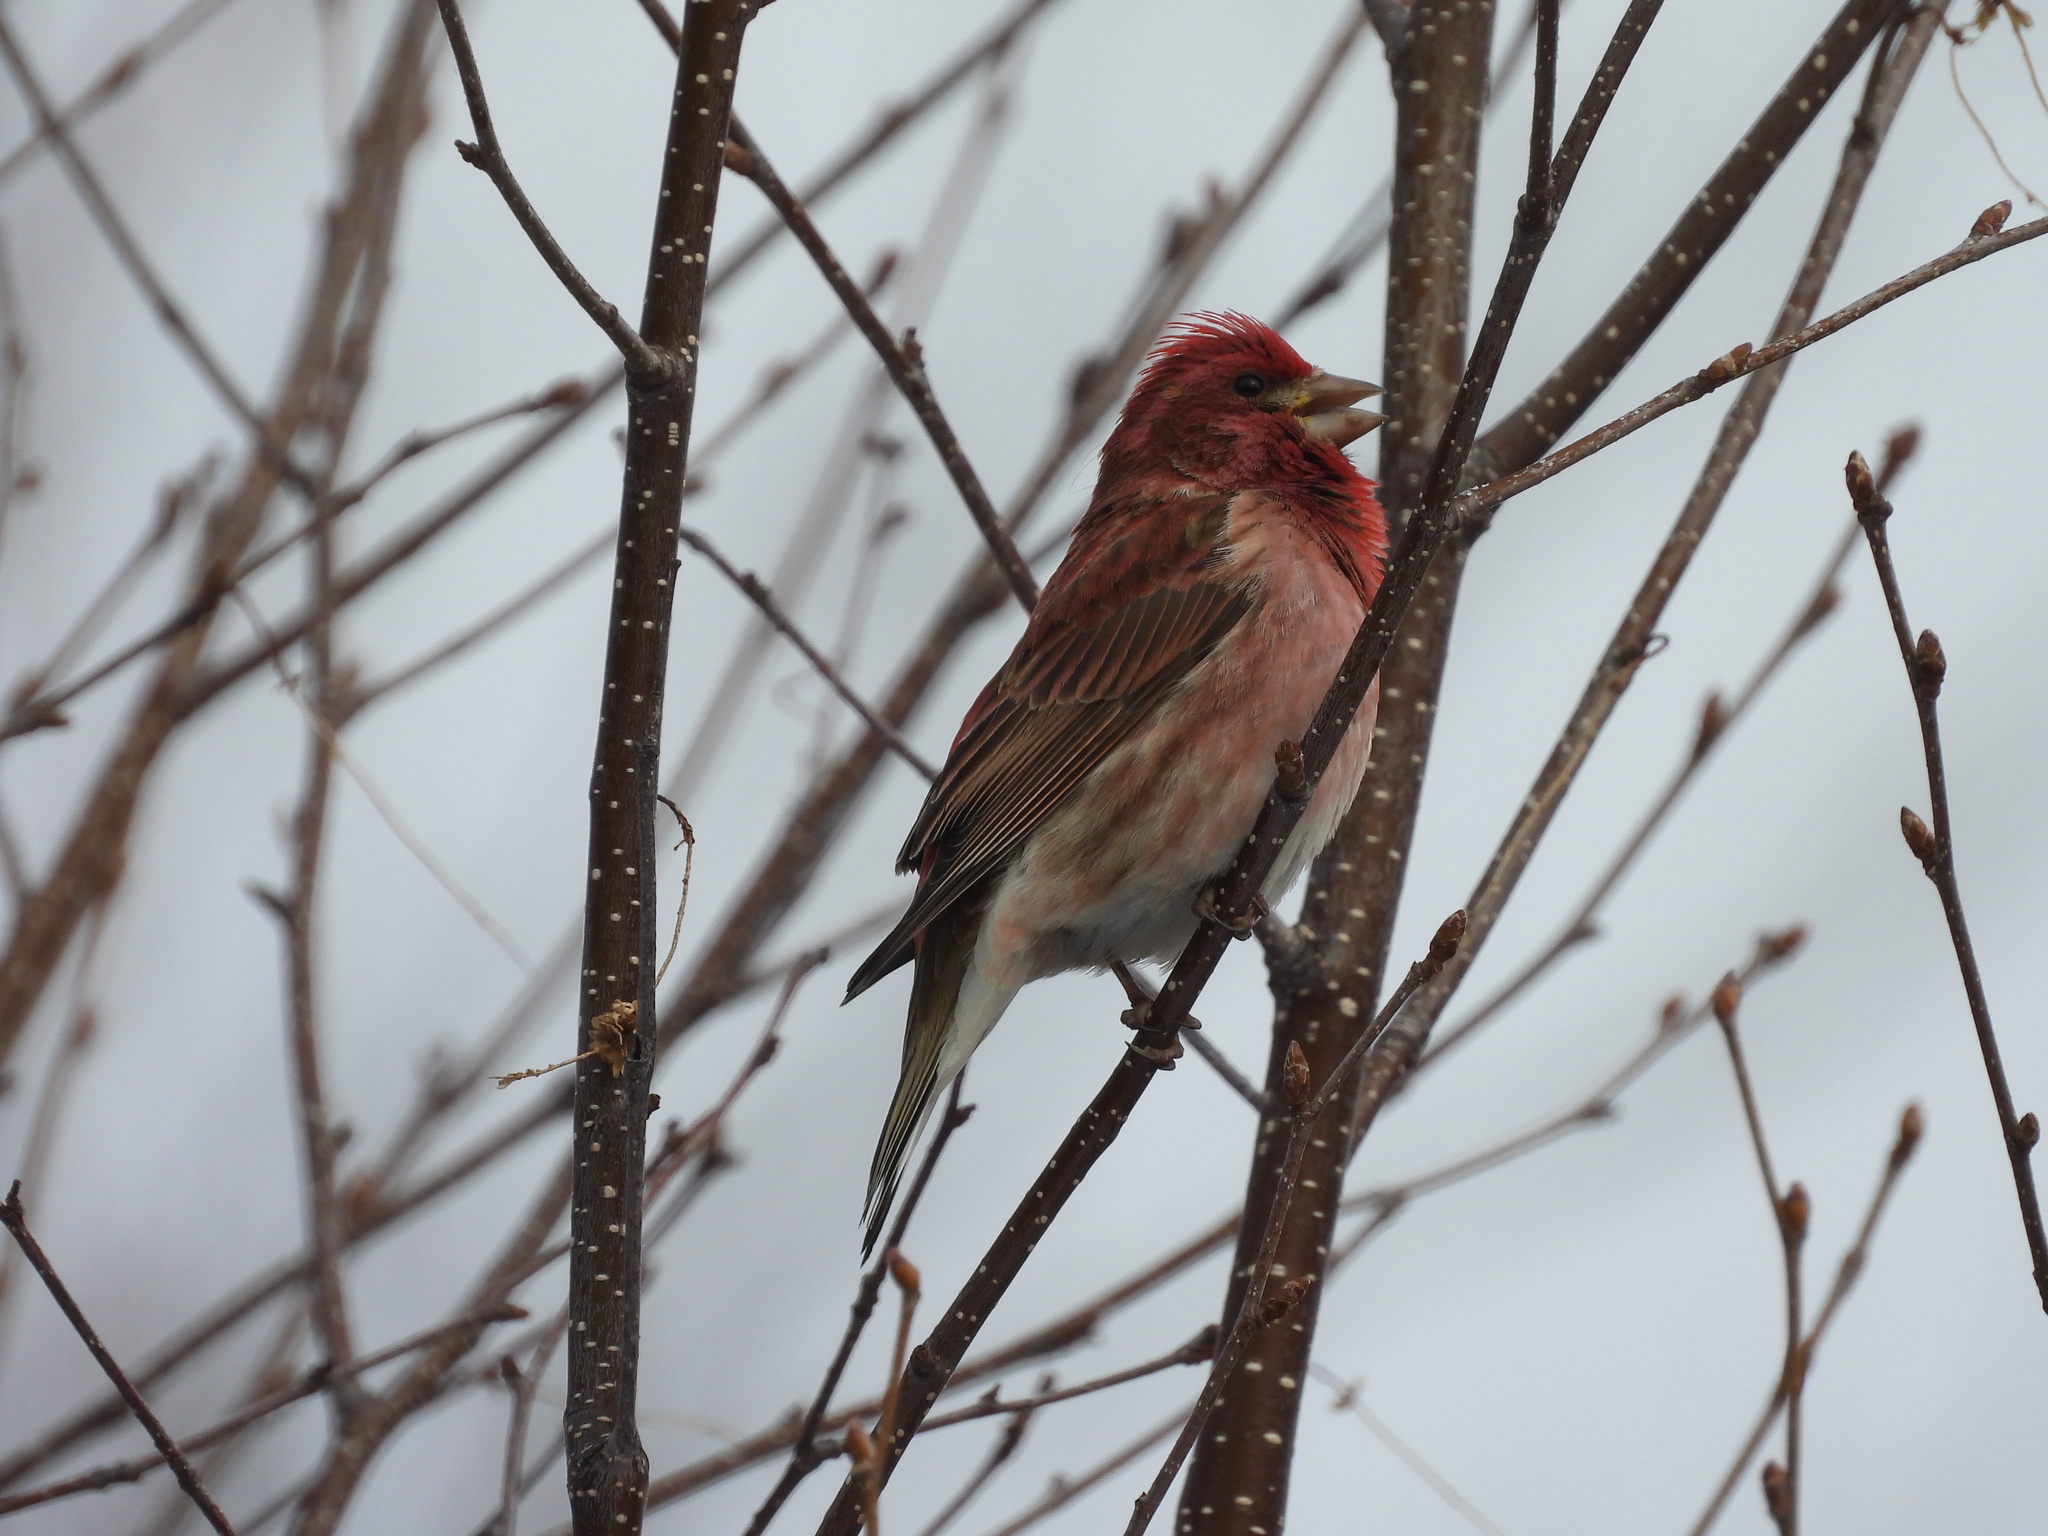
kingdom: Animalia
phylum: Chordata
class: Aves
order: Passeriformes
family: Fringillidae
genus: Haemorhous
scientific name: Haemorhous purpureus
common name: Purple finch
